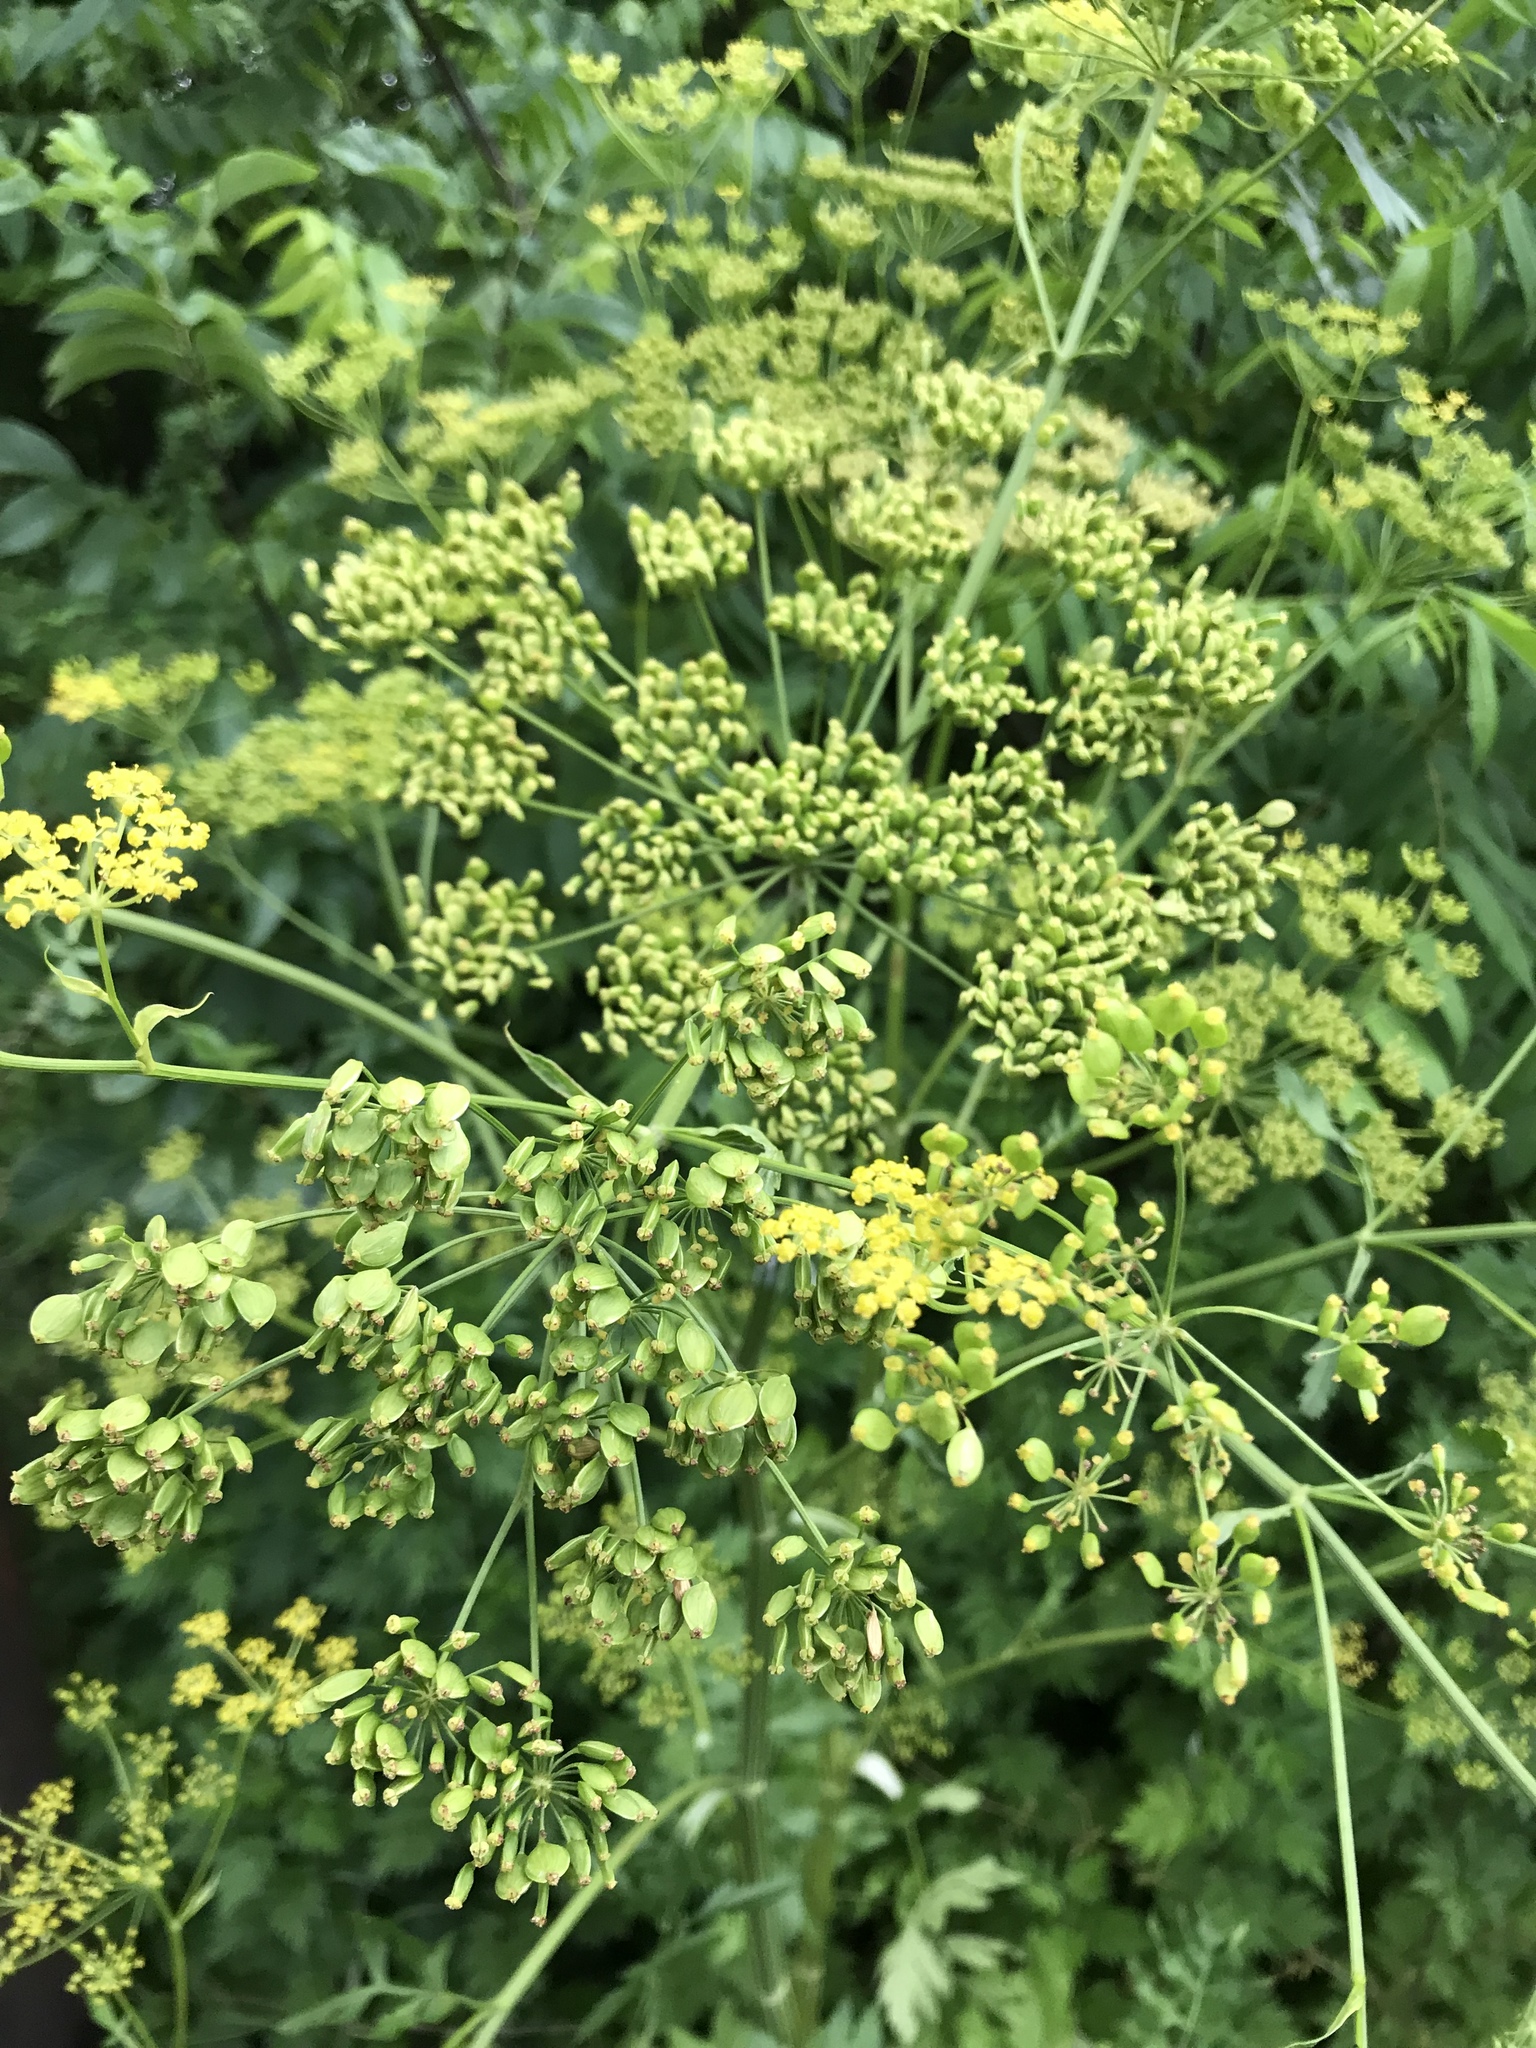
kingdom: Plantae
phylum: Tracheophyta
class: Magnoliopsida
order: Apiales
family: Apiaceae
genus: Pastinaca
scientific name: Pastinaca sativa
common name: Wild parsnip
